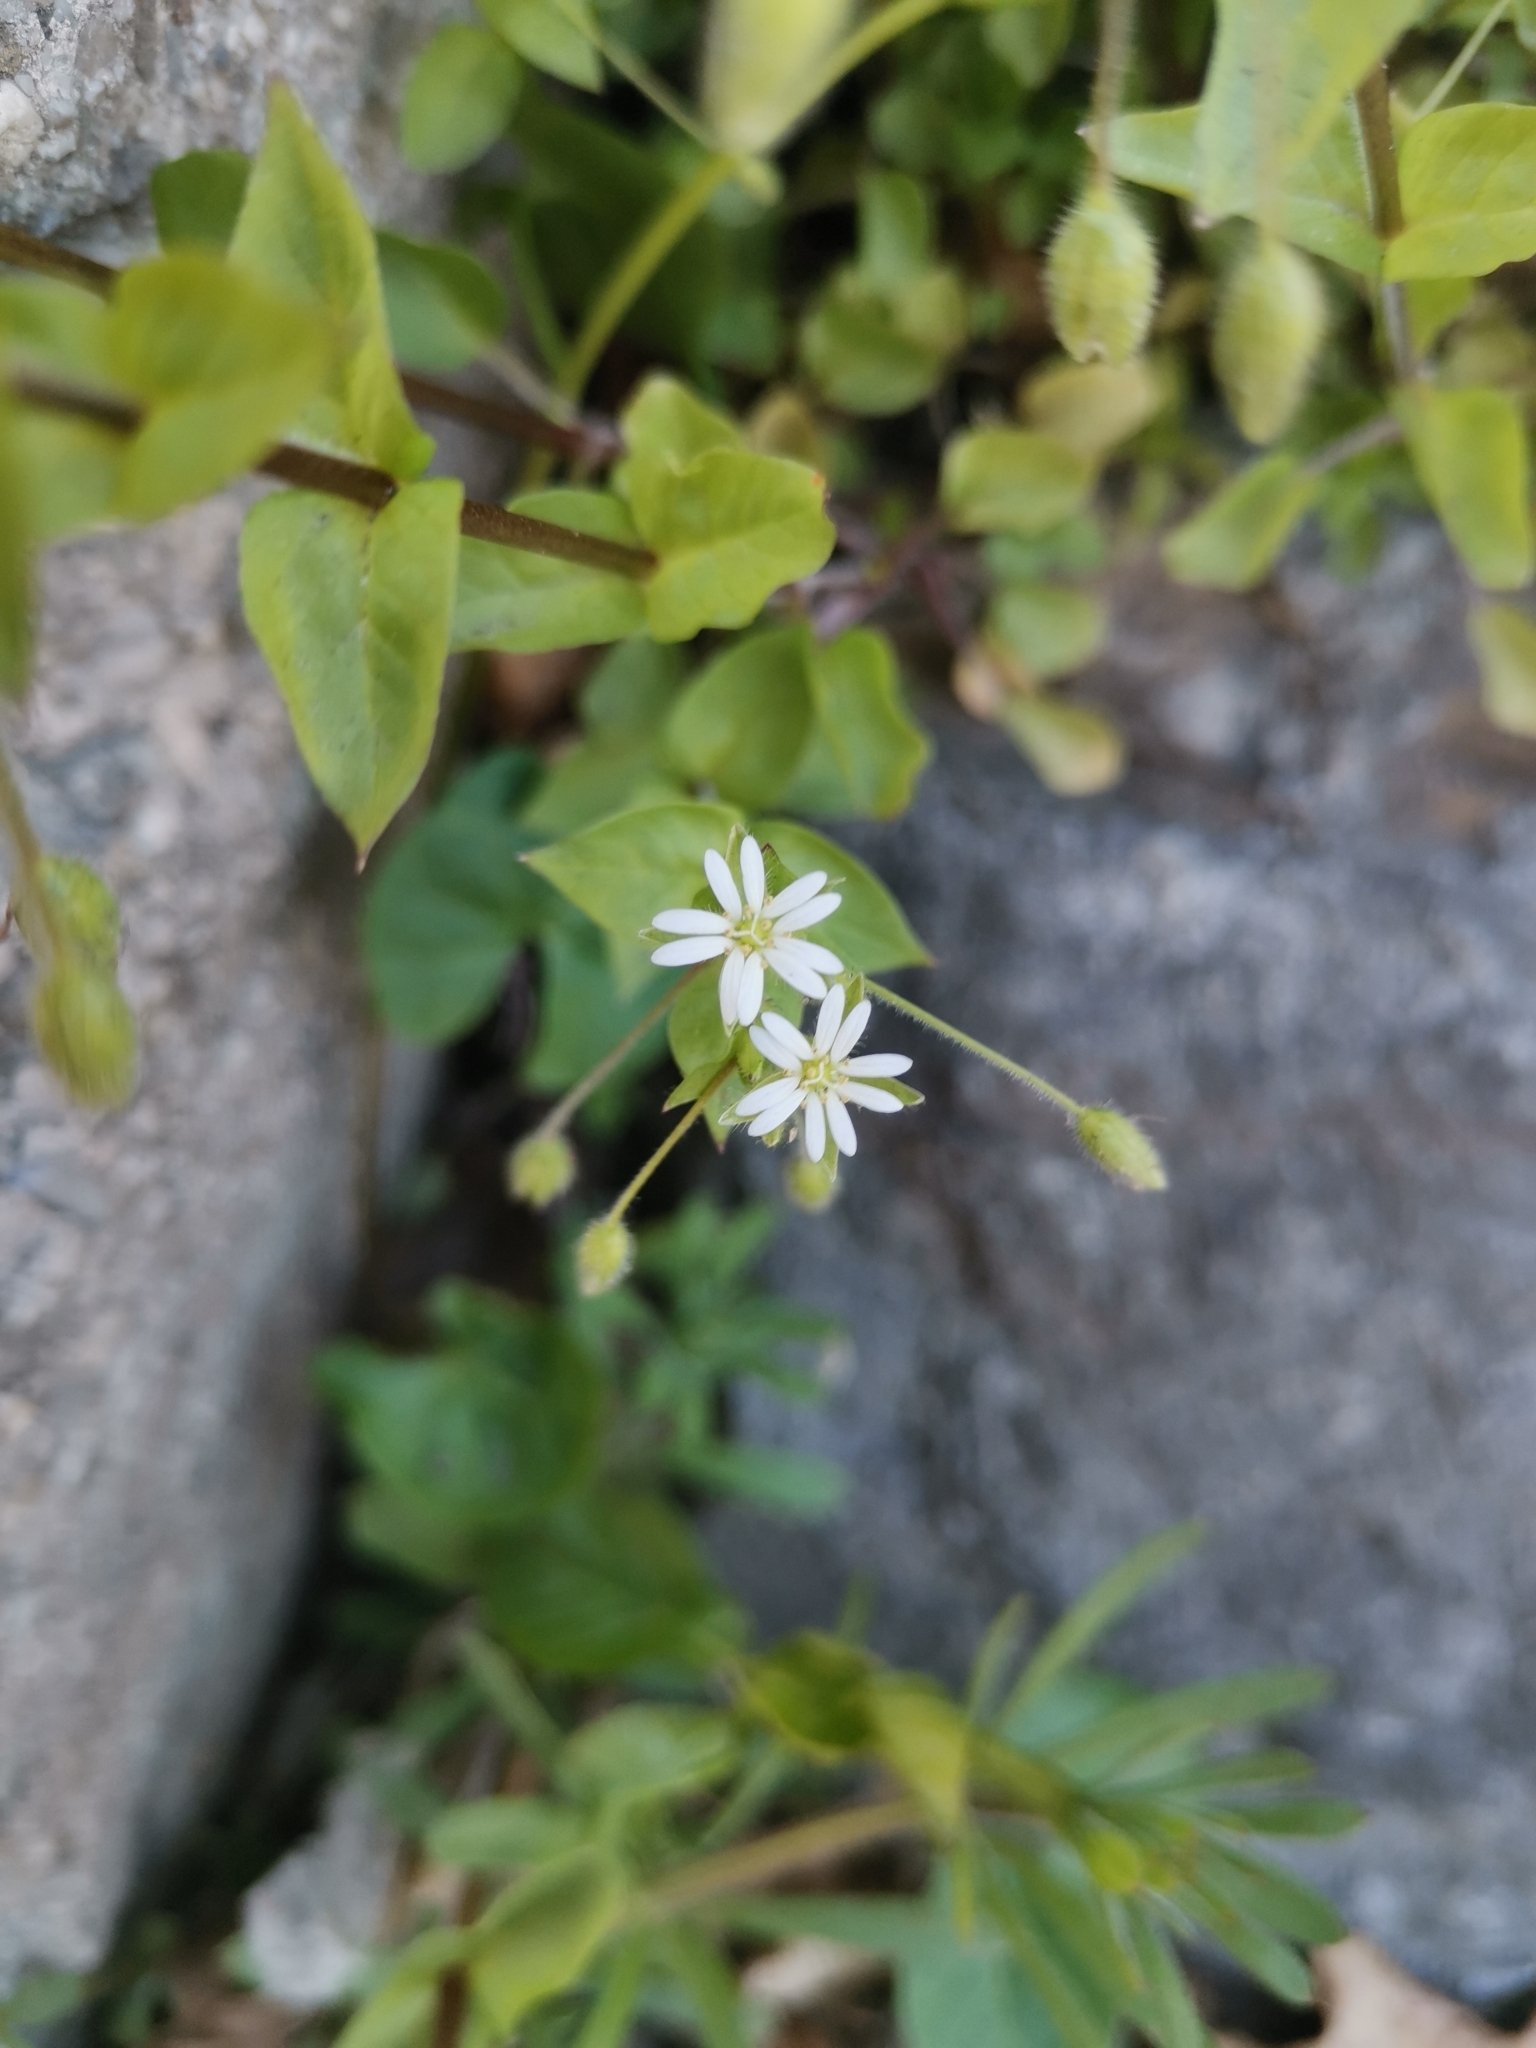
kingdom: Plantae
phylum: Tracheophyta
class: Magnoliopsida
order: Caryophyllales
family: Caryophyllaceae
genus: Stellaria
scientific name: Stellaria neglecta
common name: Greater chickweed
